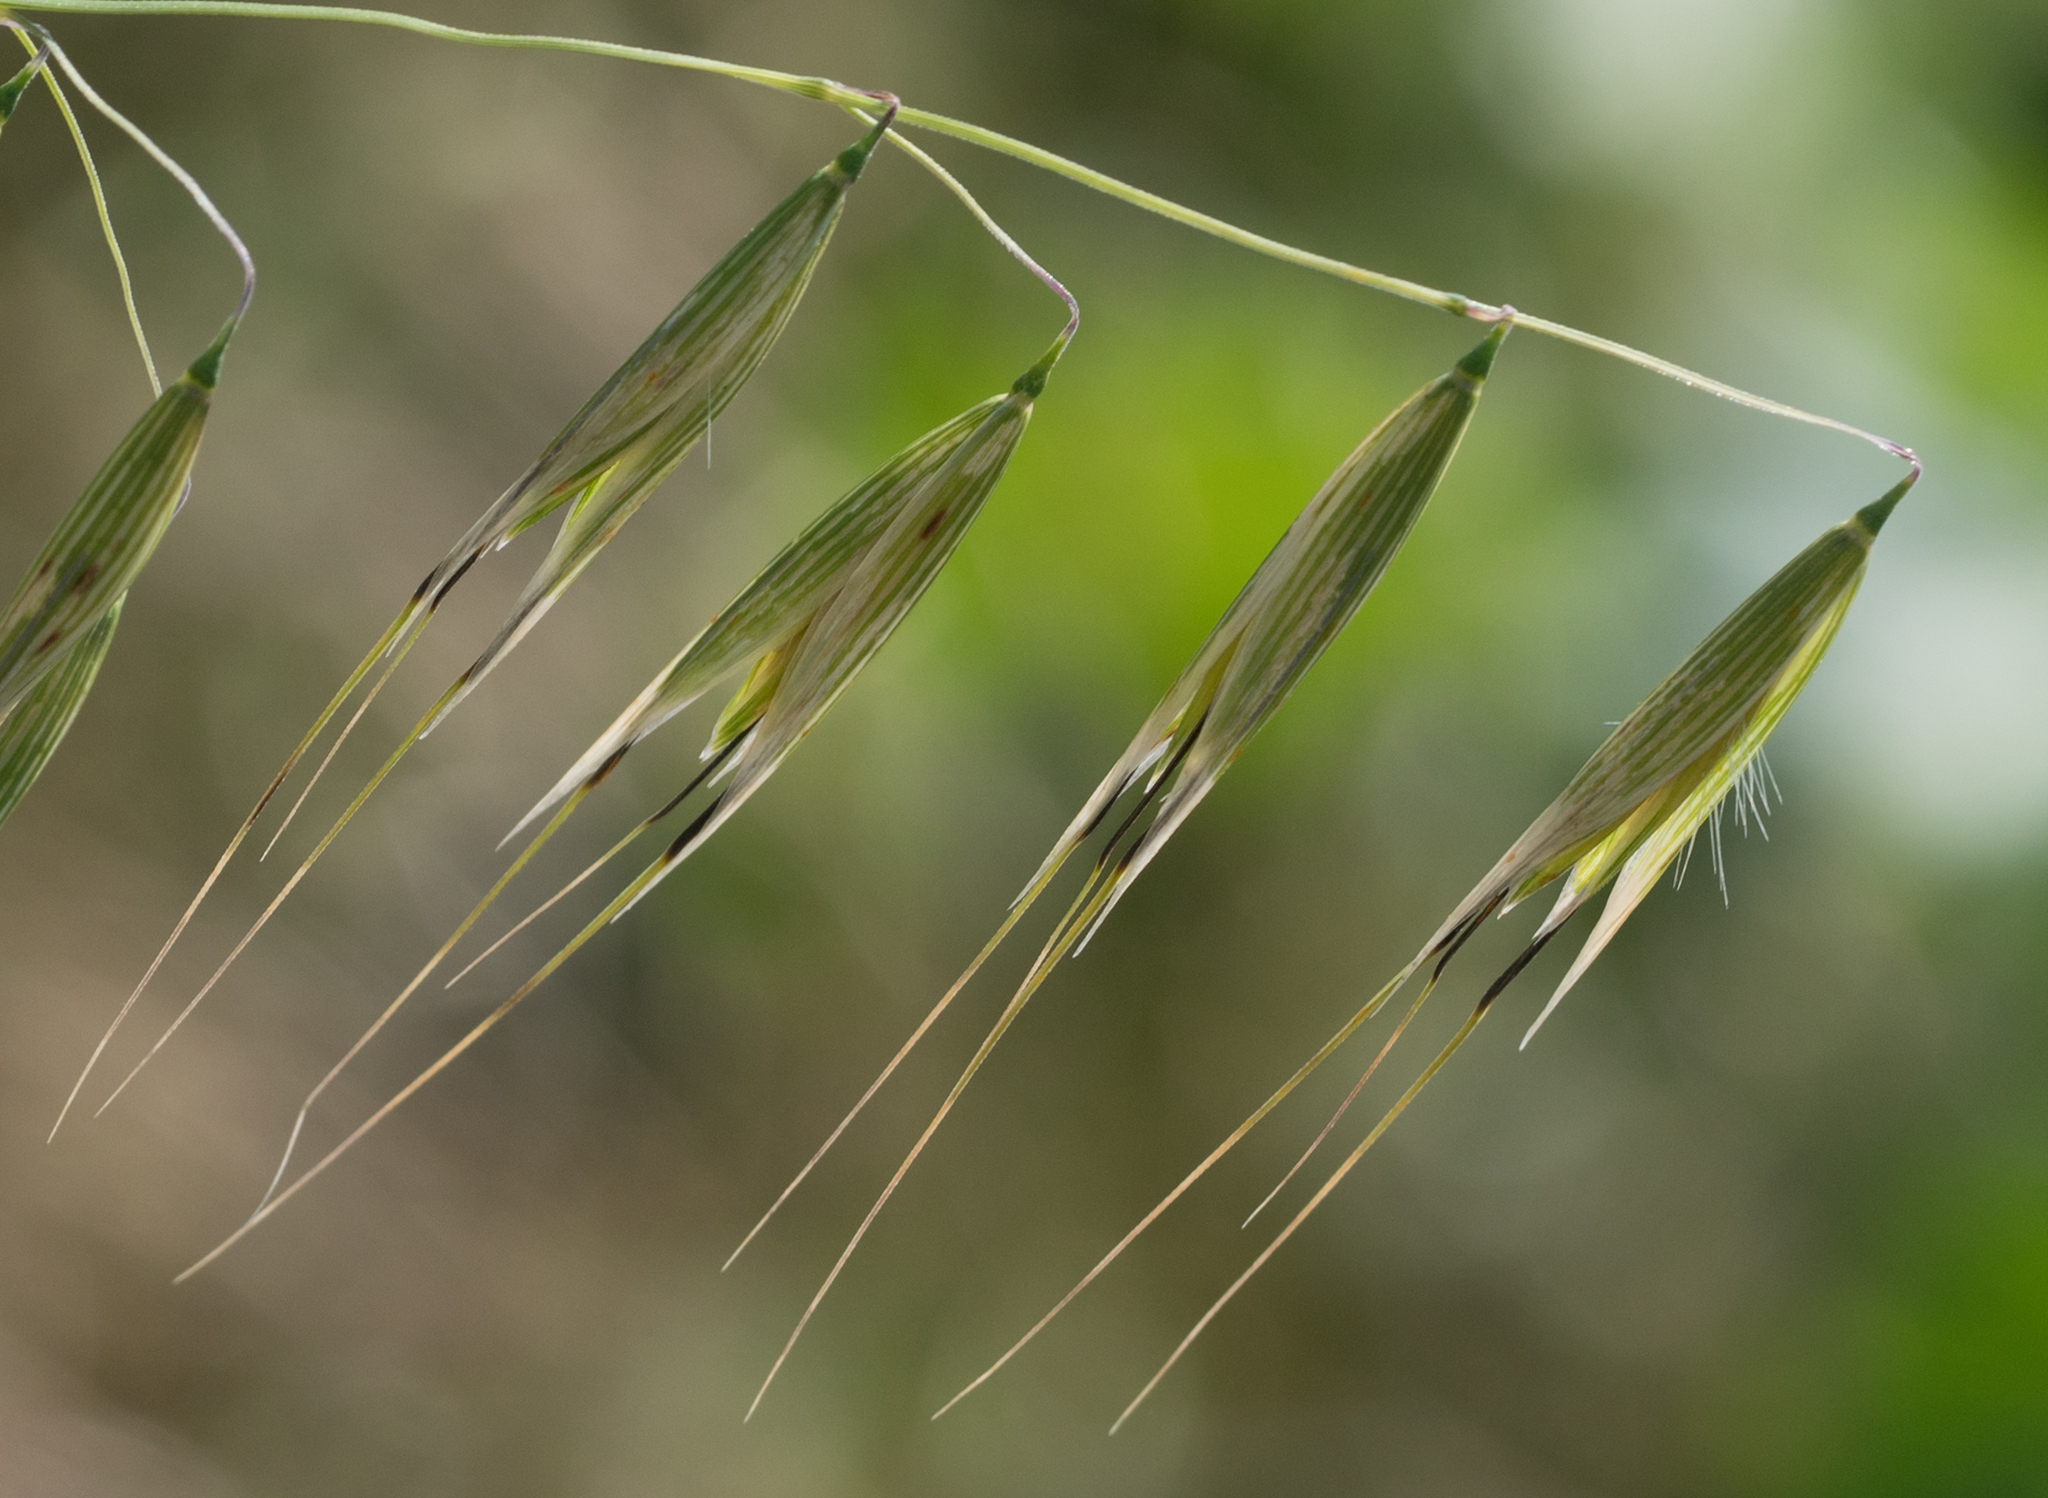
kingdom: Plantae
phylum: Tracheophyta
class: Liliopsida
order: Poales
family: Poaceae
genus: Avena
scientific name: Avena fatua
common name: Wild oat
